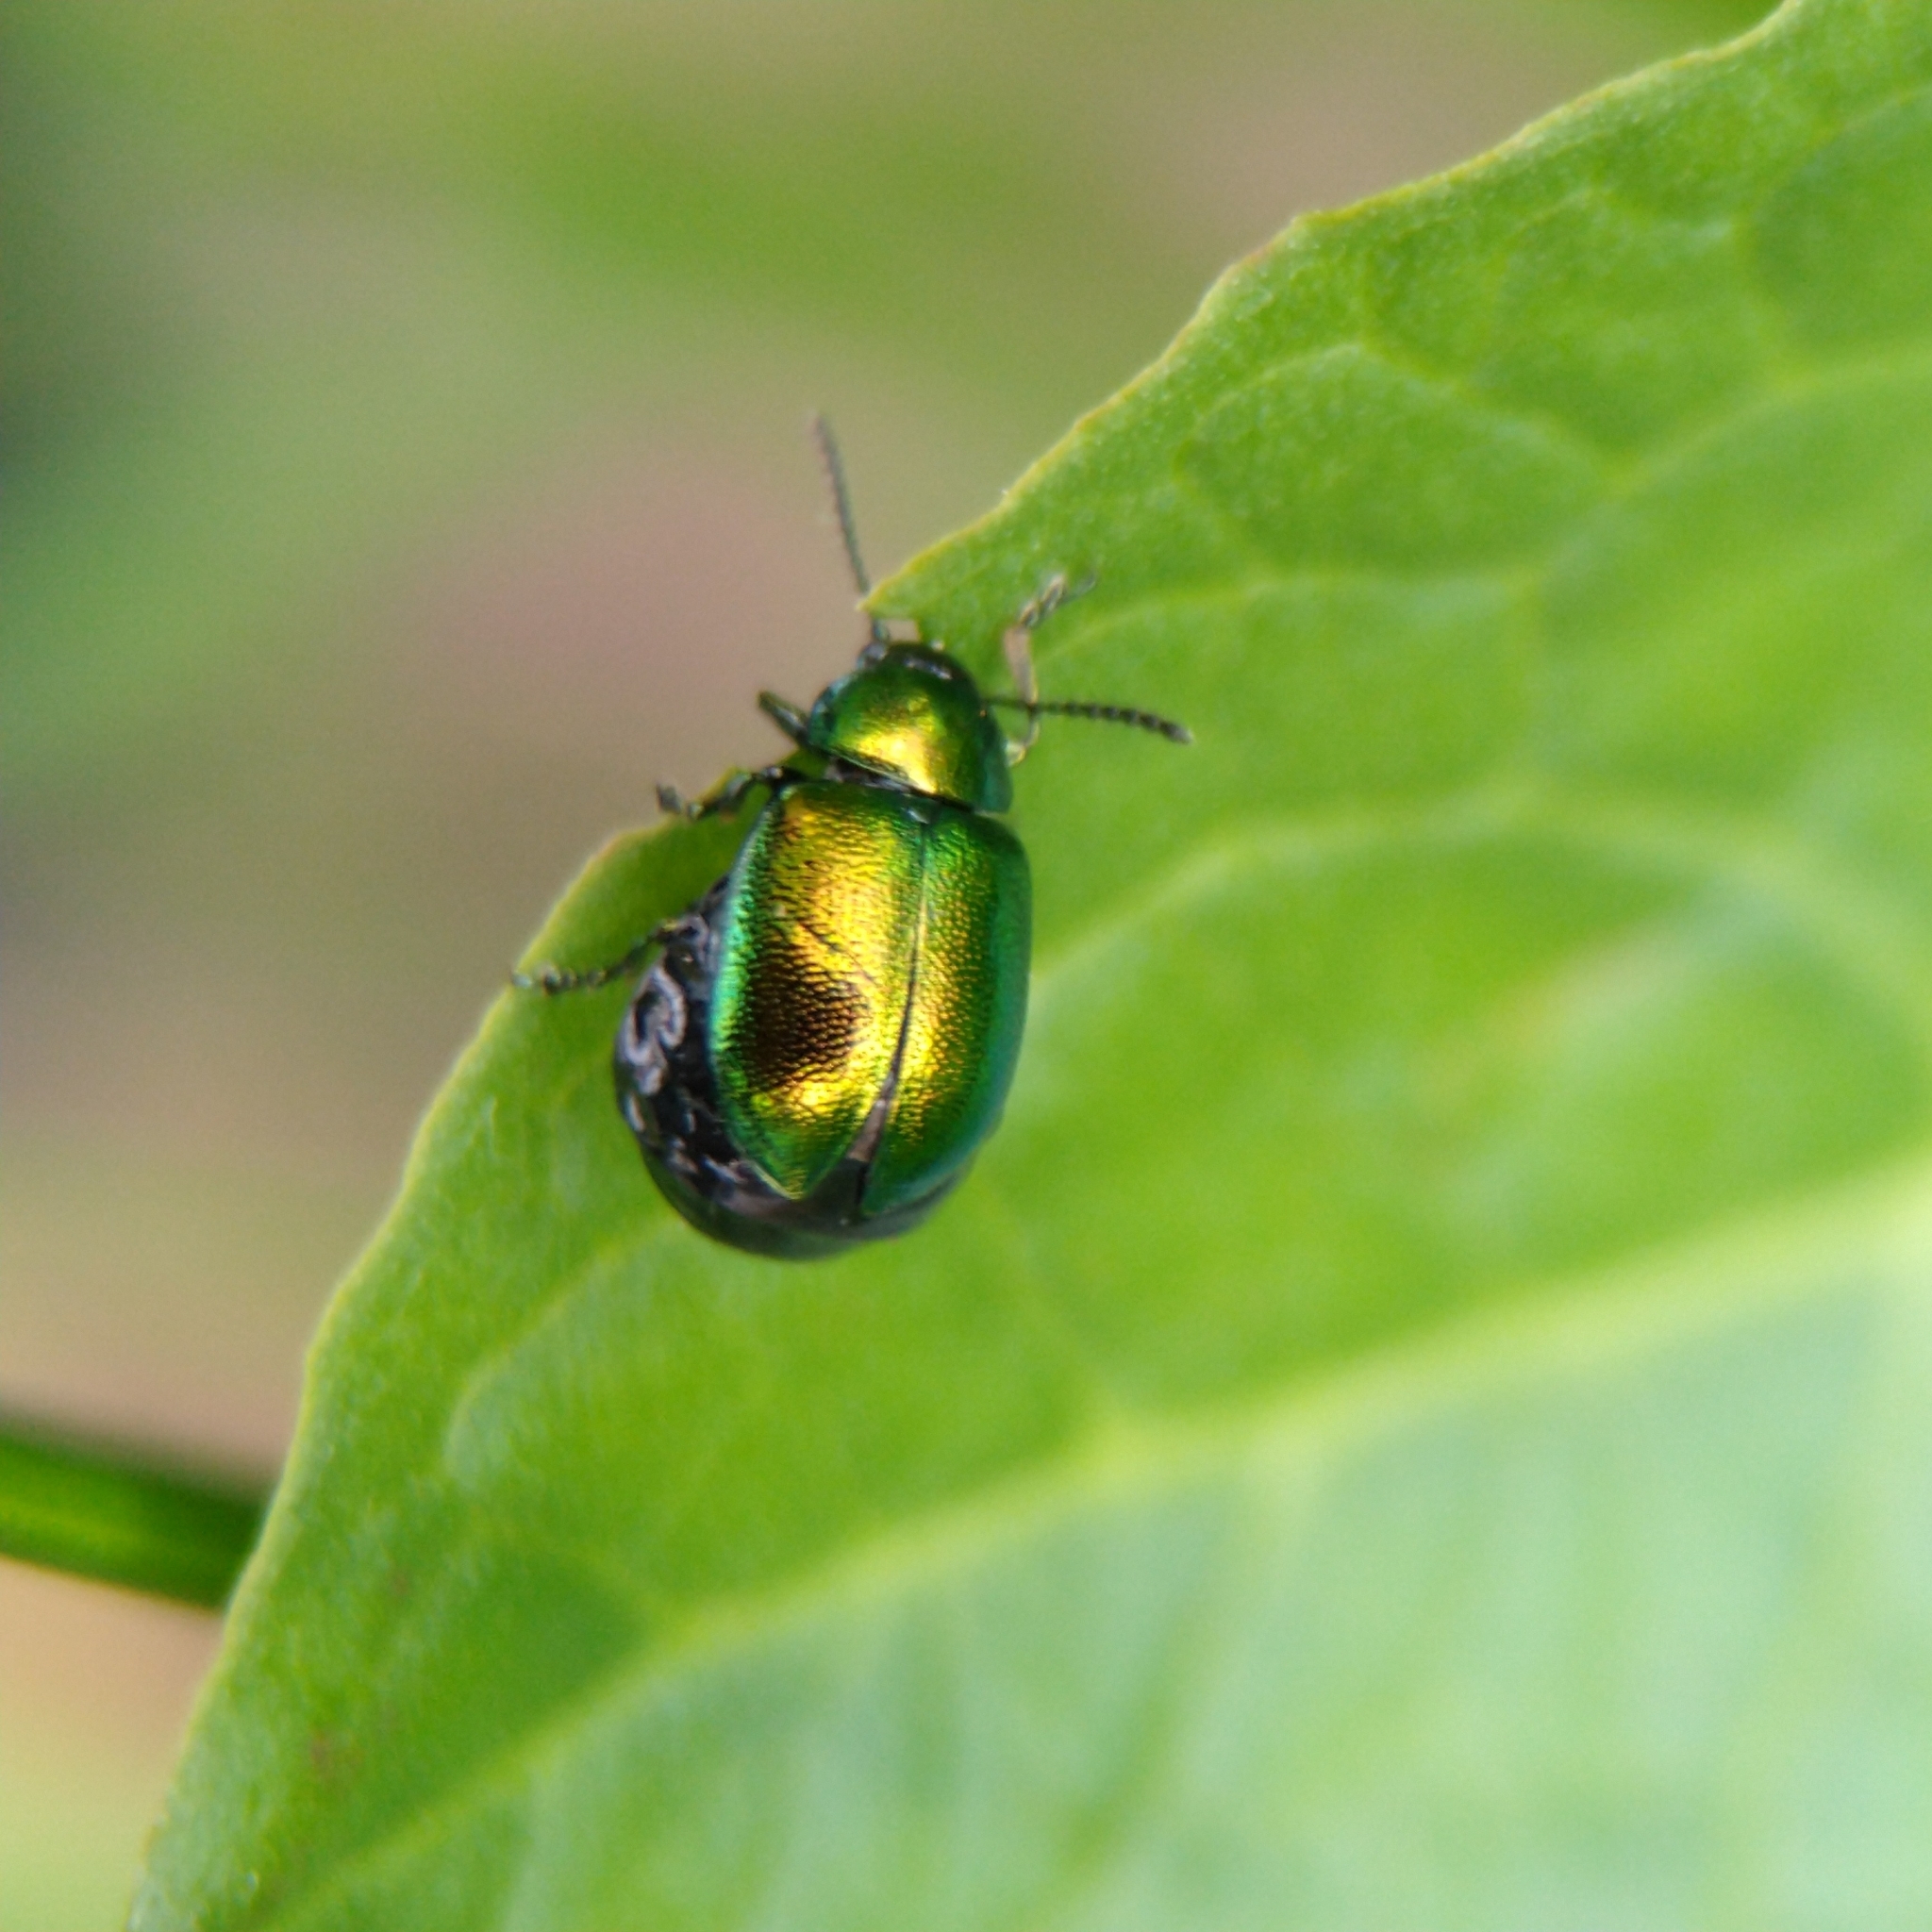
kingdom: Animalia
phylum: Arthropoda
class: Insecta
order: Coleoptera
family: Chrysomelidae
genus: Gastrophysa
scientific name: Gastrophysa viridula
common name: Green dock beetle
